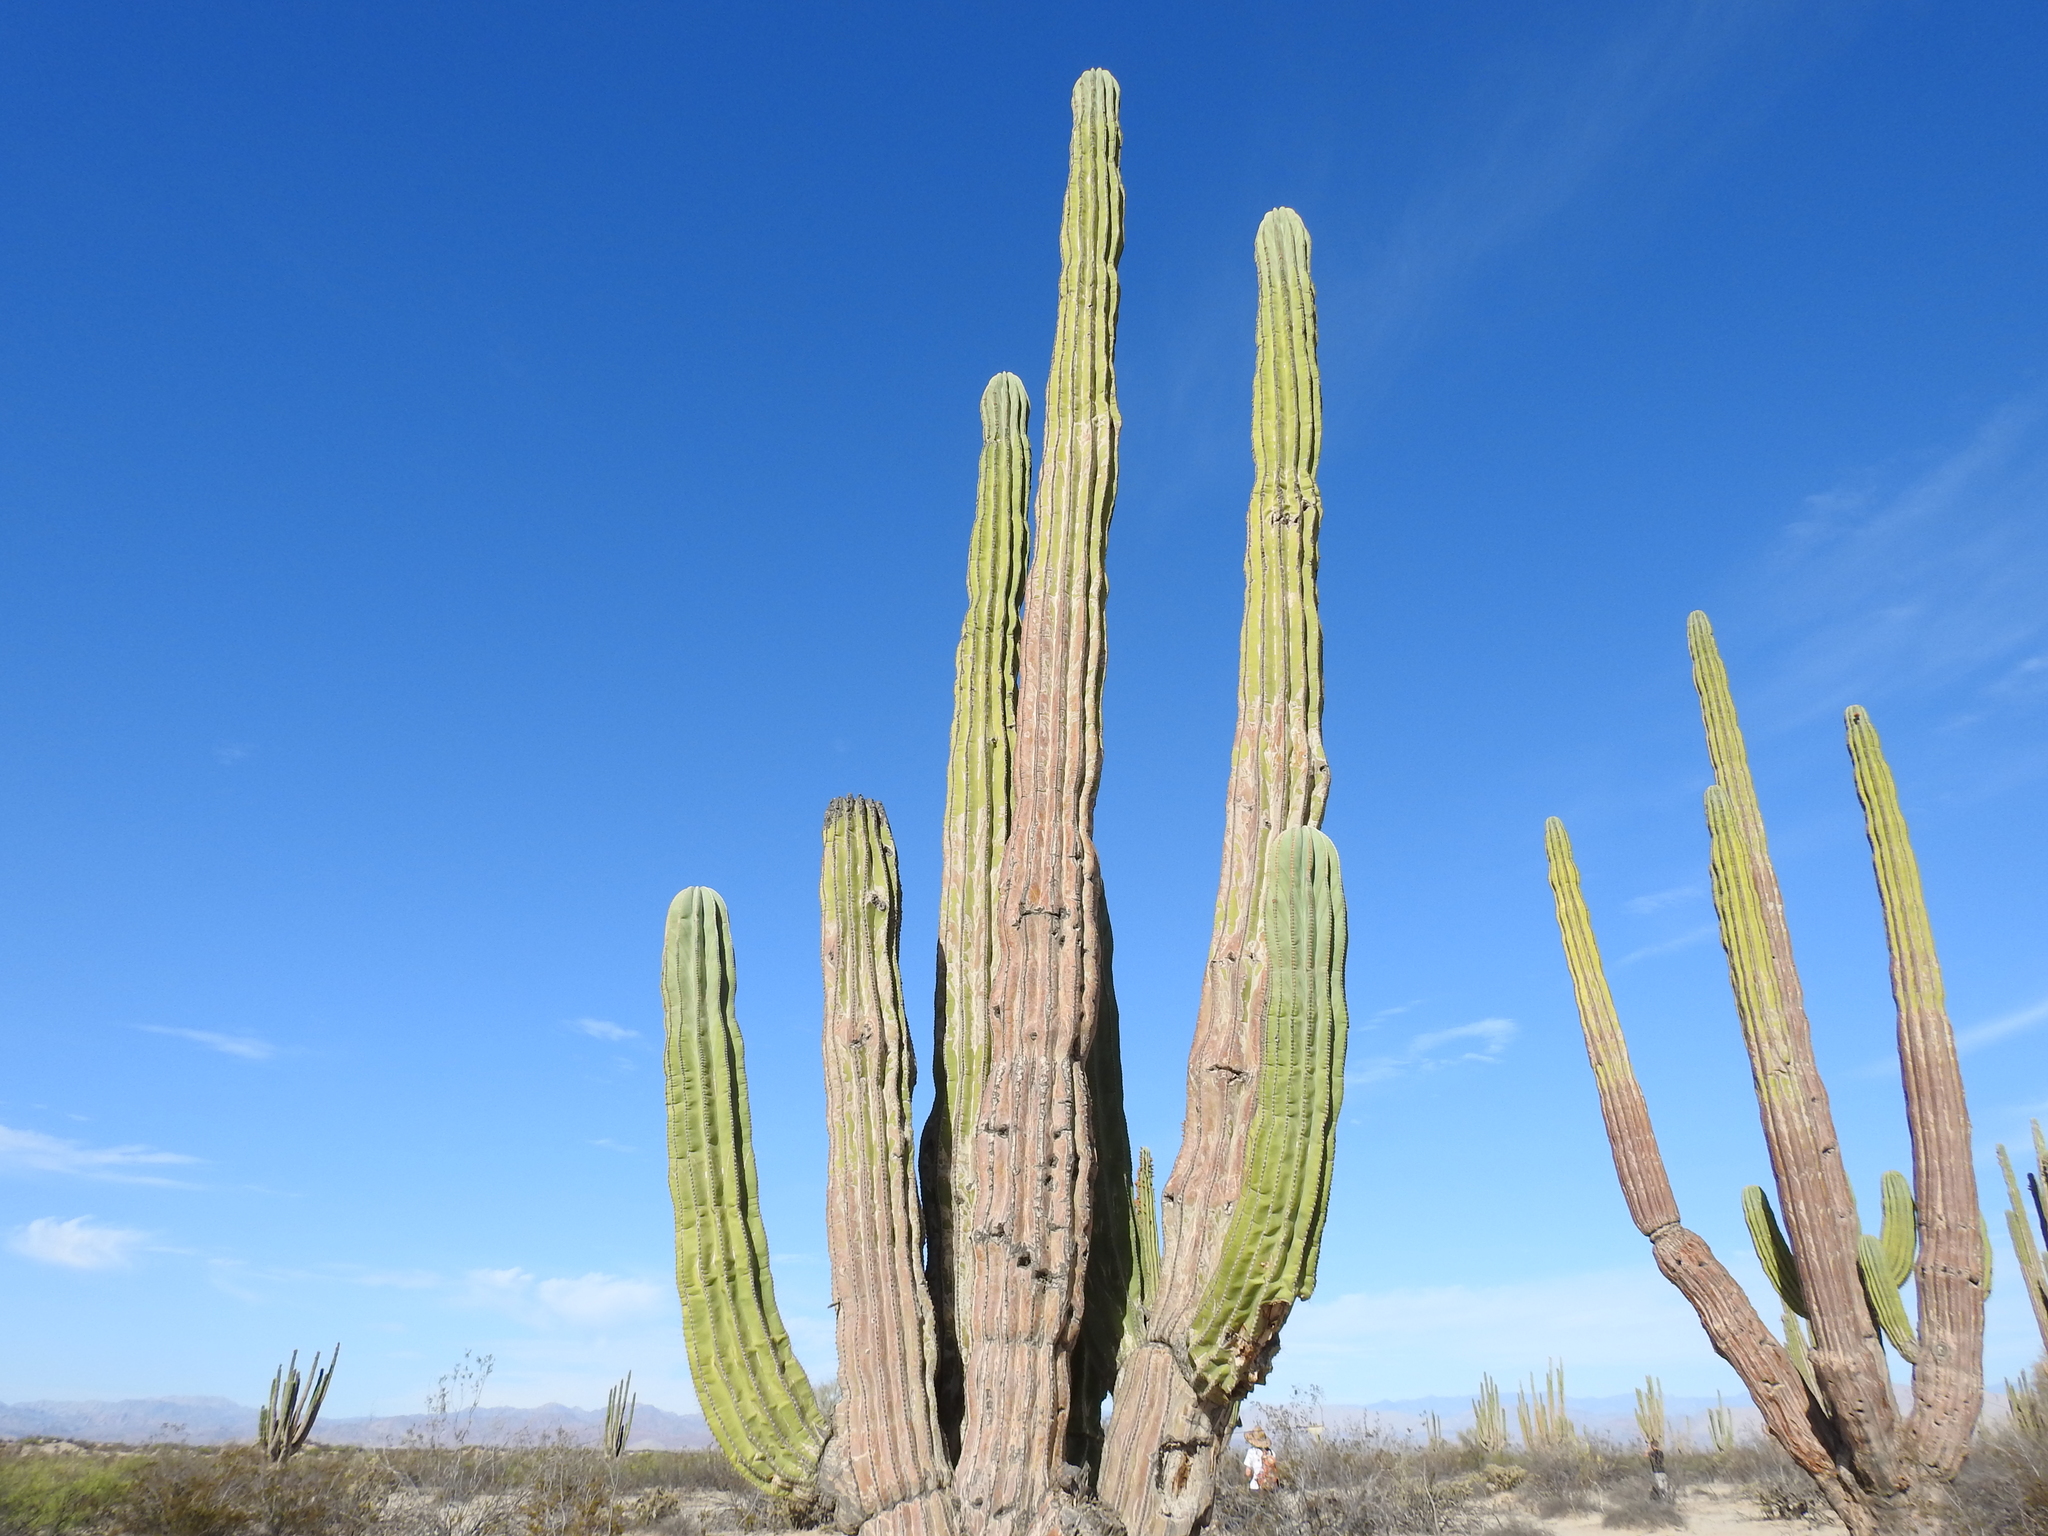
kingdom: Plantae
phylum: Tracheophyta
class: Magnoliopsida
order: Caryophyllales
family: Cactaceae
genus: Pachycereus
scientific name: Pachycereus pringlei
